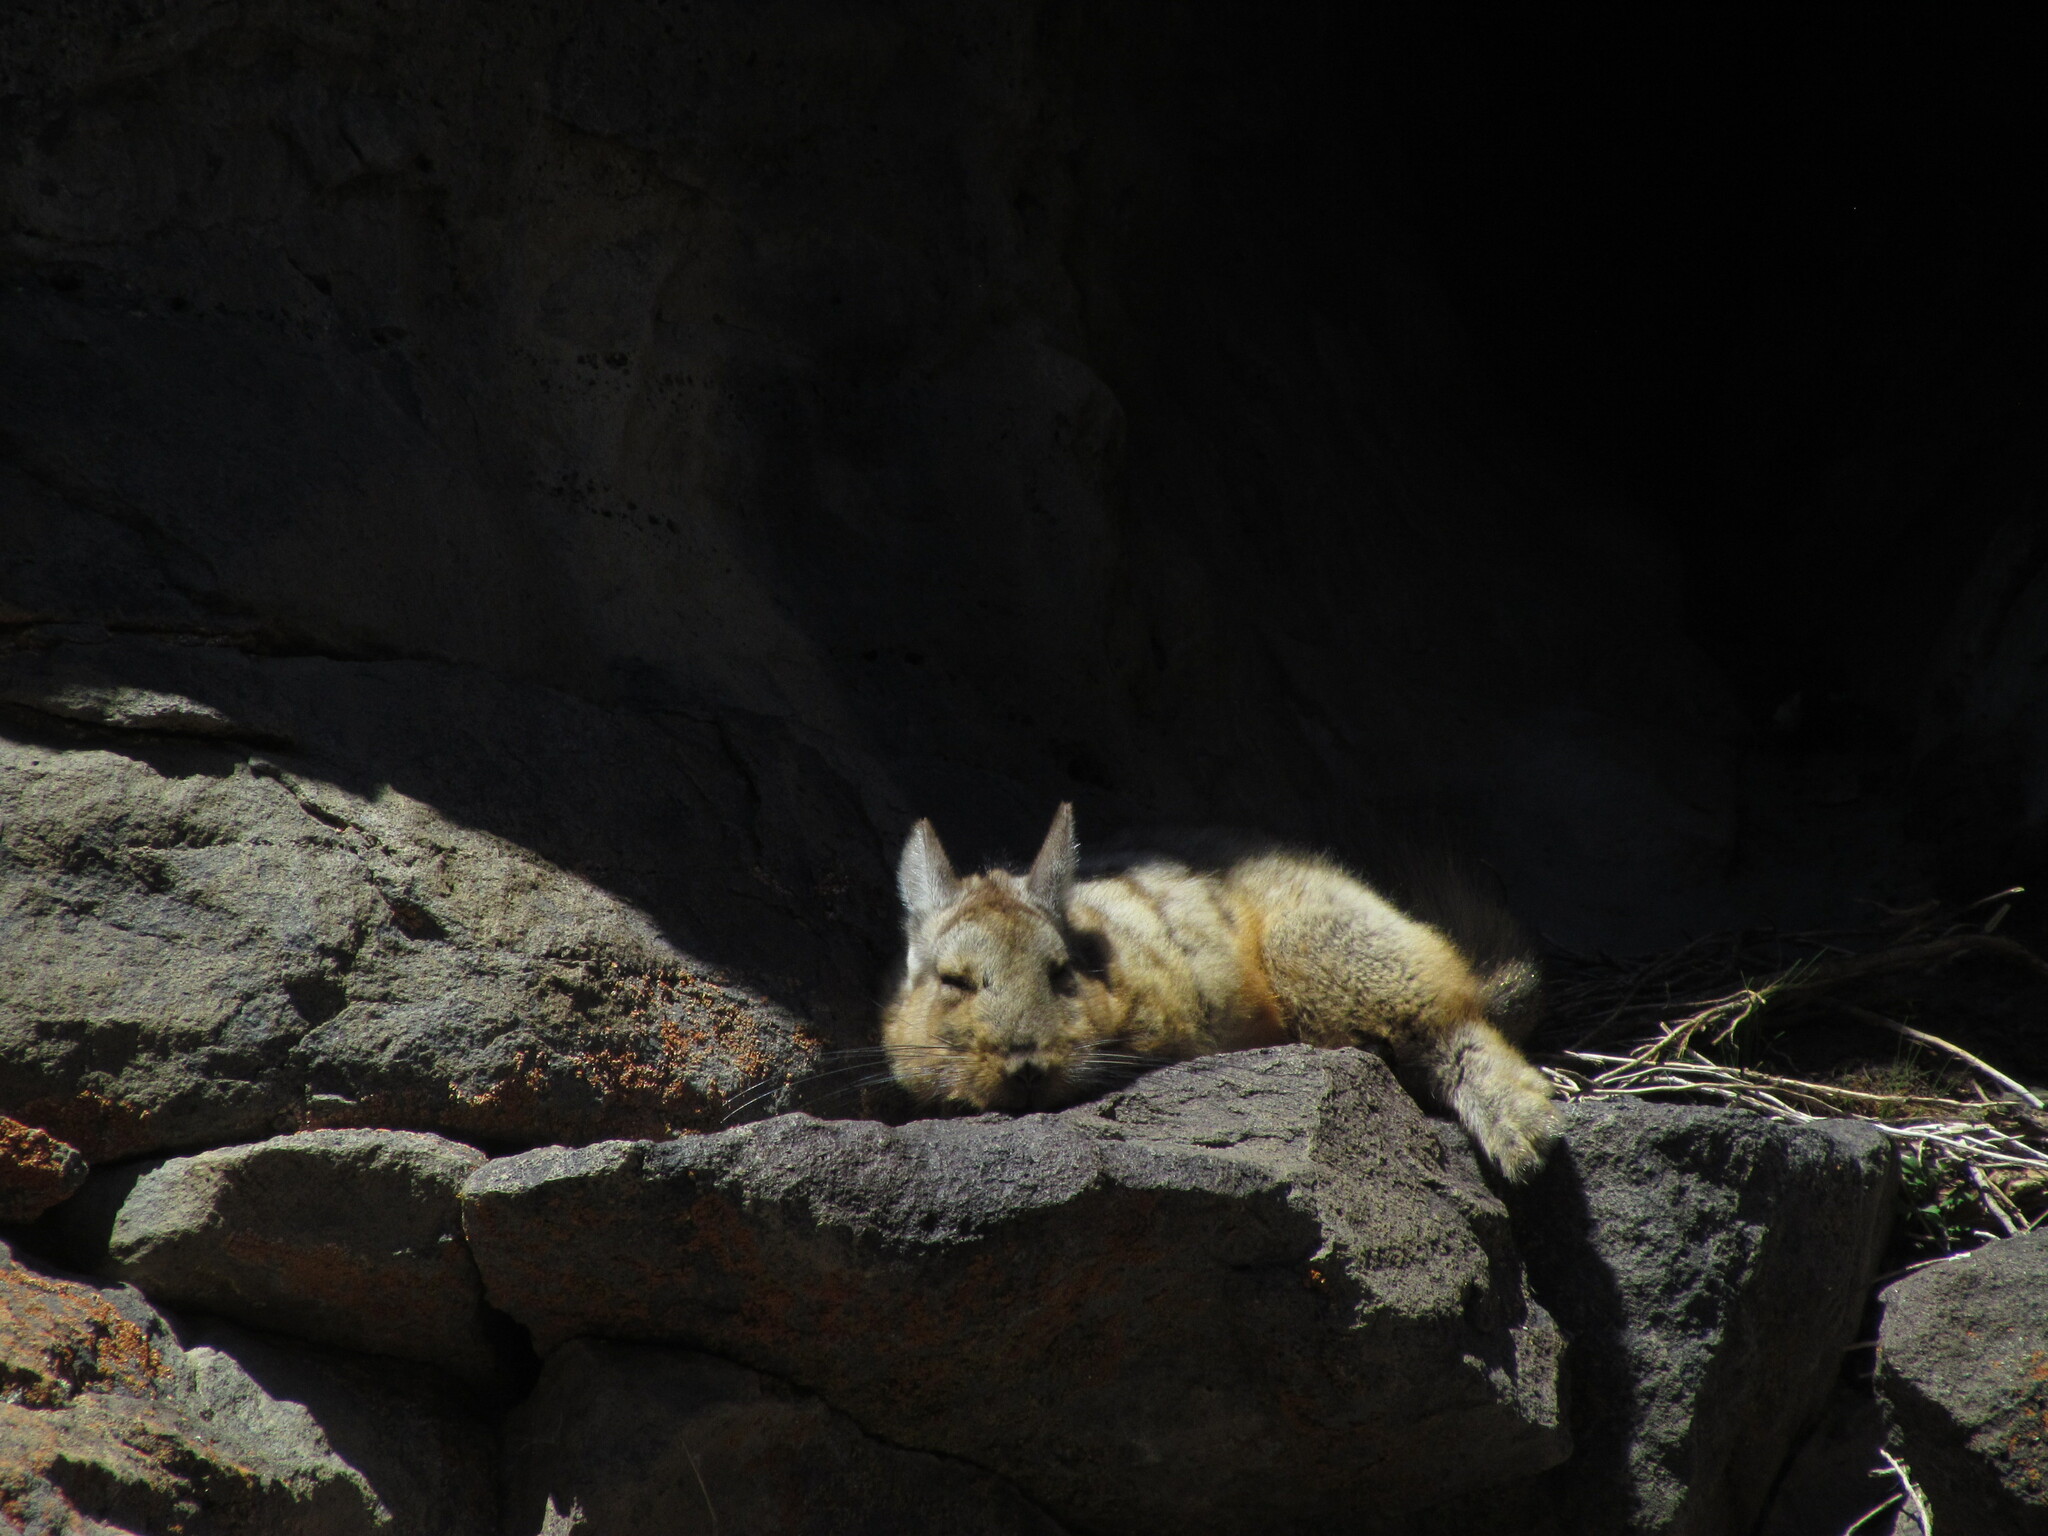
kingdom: Animalia
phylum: Chordata
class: Mammalia
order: Rodentia
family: Chinchillidae
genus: Lagidium
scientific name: Lagidium wolffsohni
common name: Wolffsohn's viscacha
